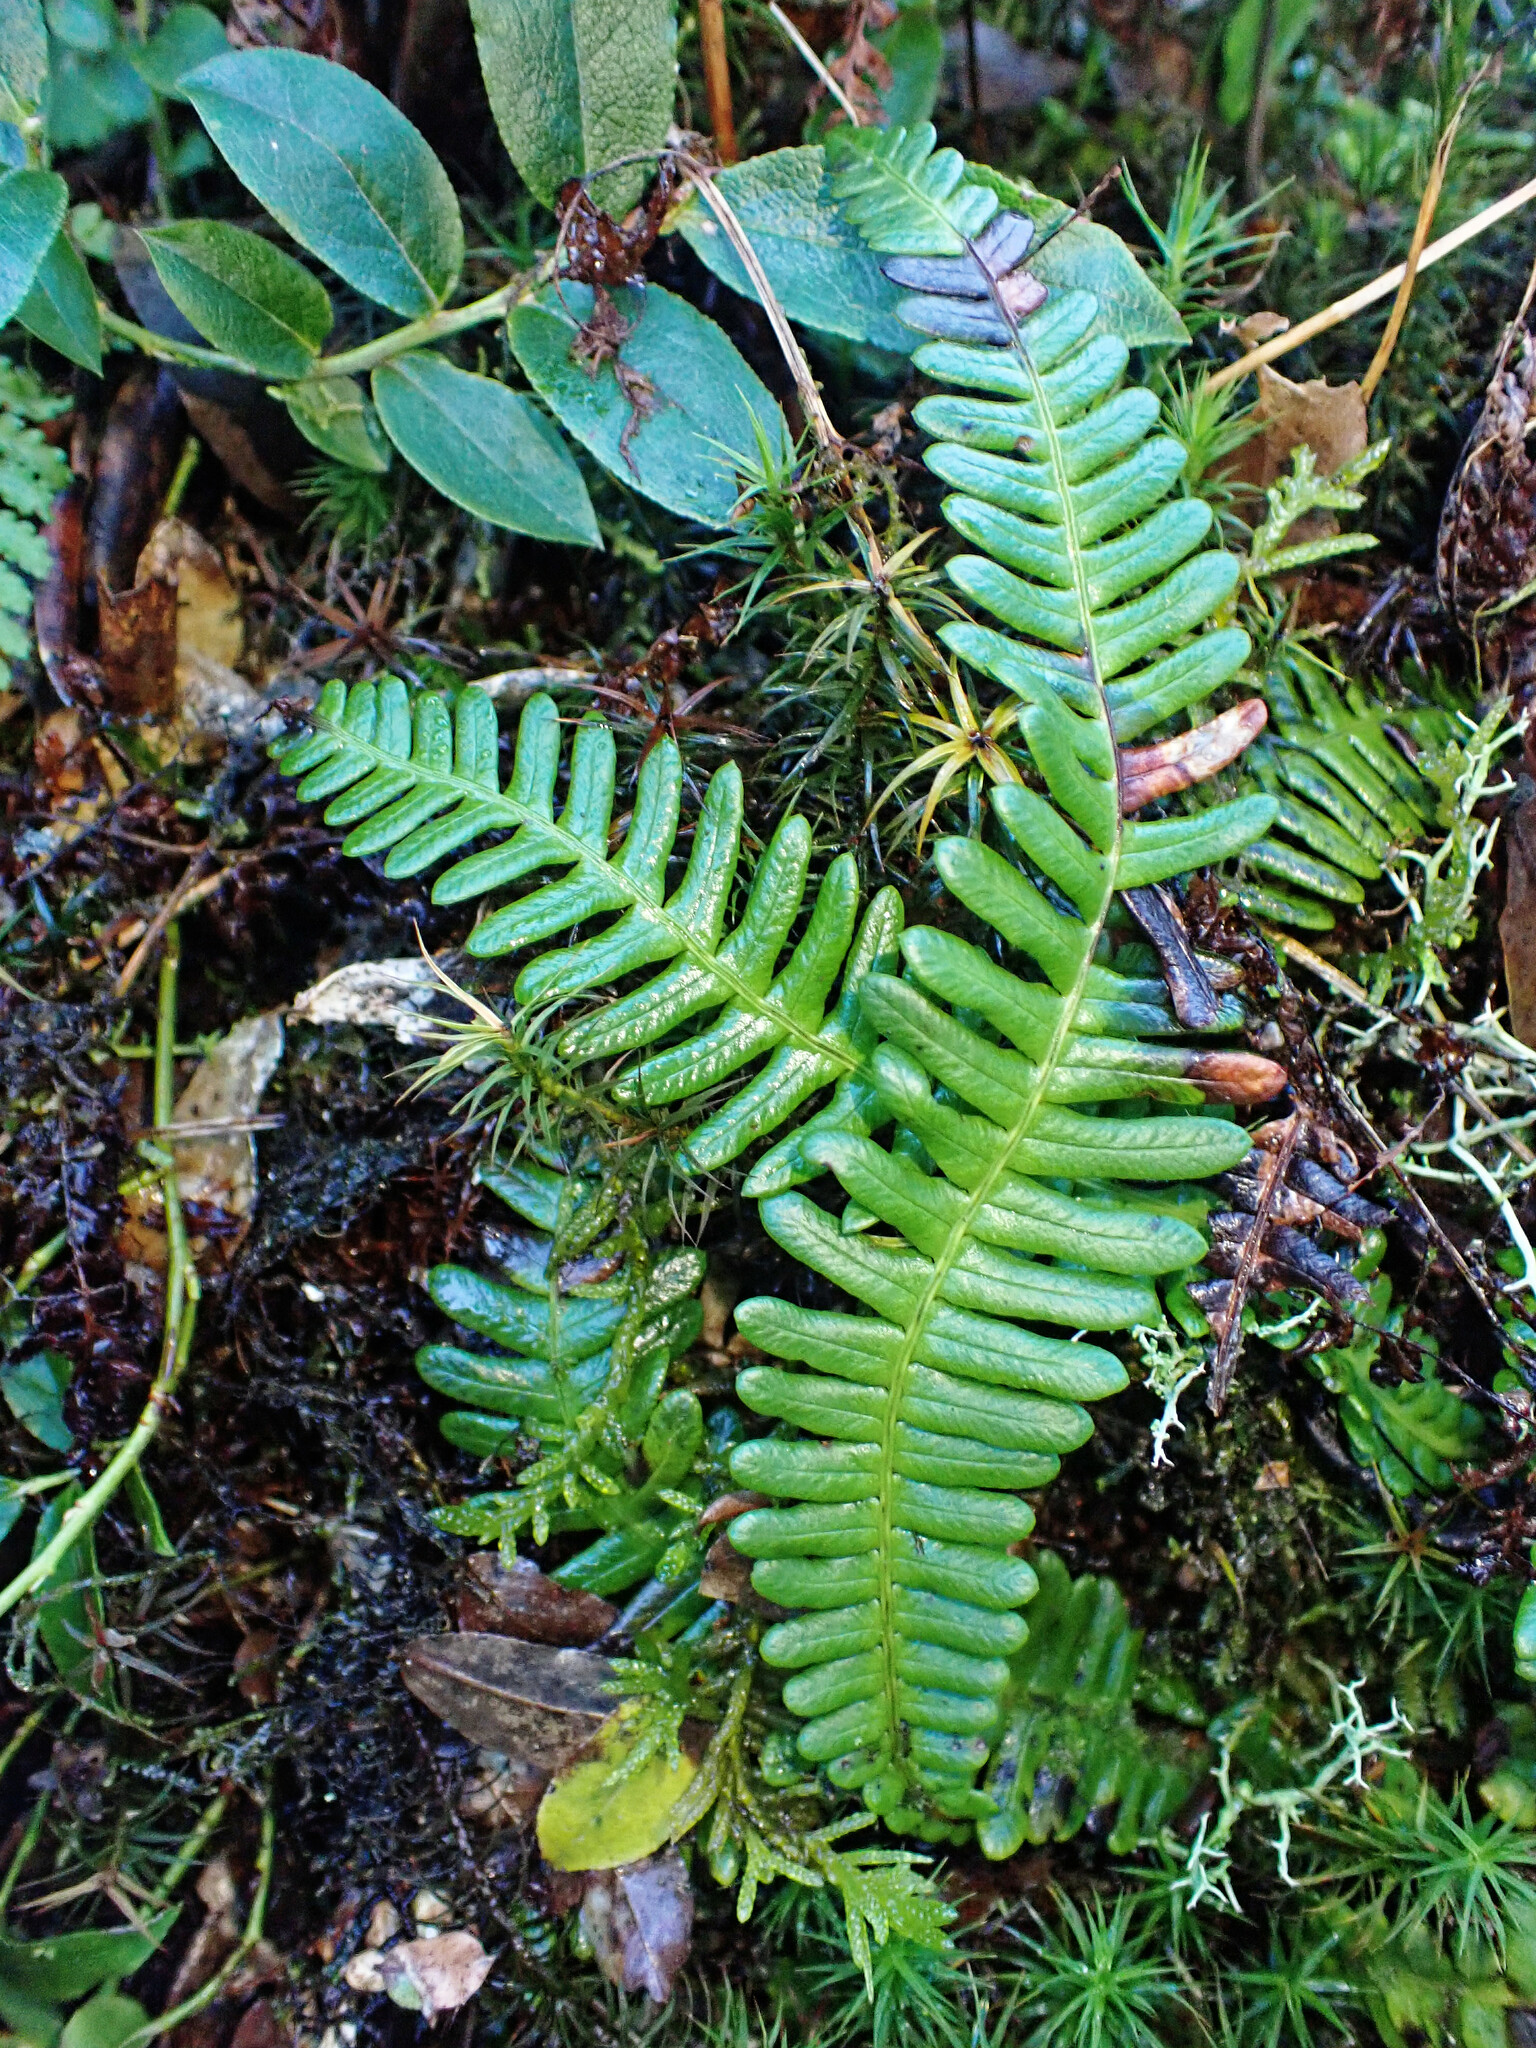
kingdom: Plantae
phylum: Tracheophyta
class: Polypodiopsida
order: Polypodiales
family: Blechnaceae
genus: Struthiopteris
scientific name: Struthiopteris spicant
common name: Deer fern
